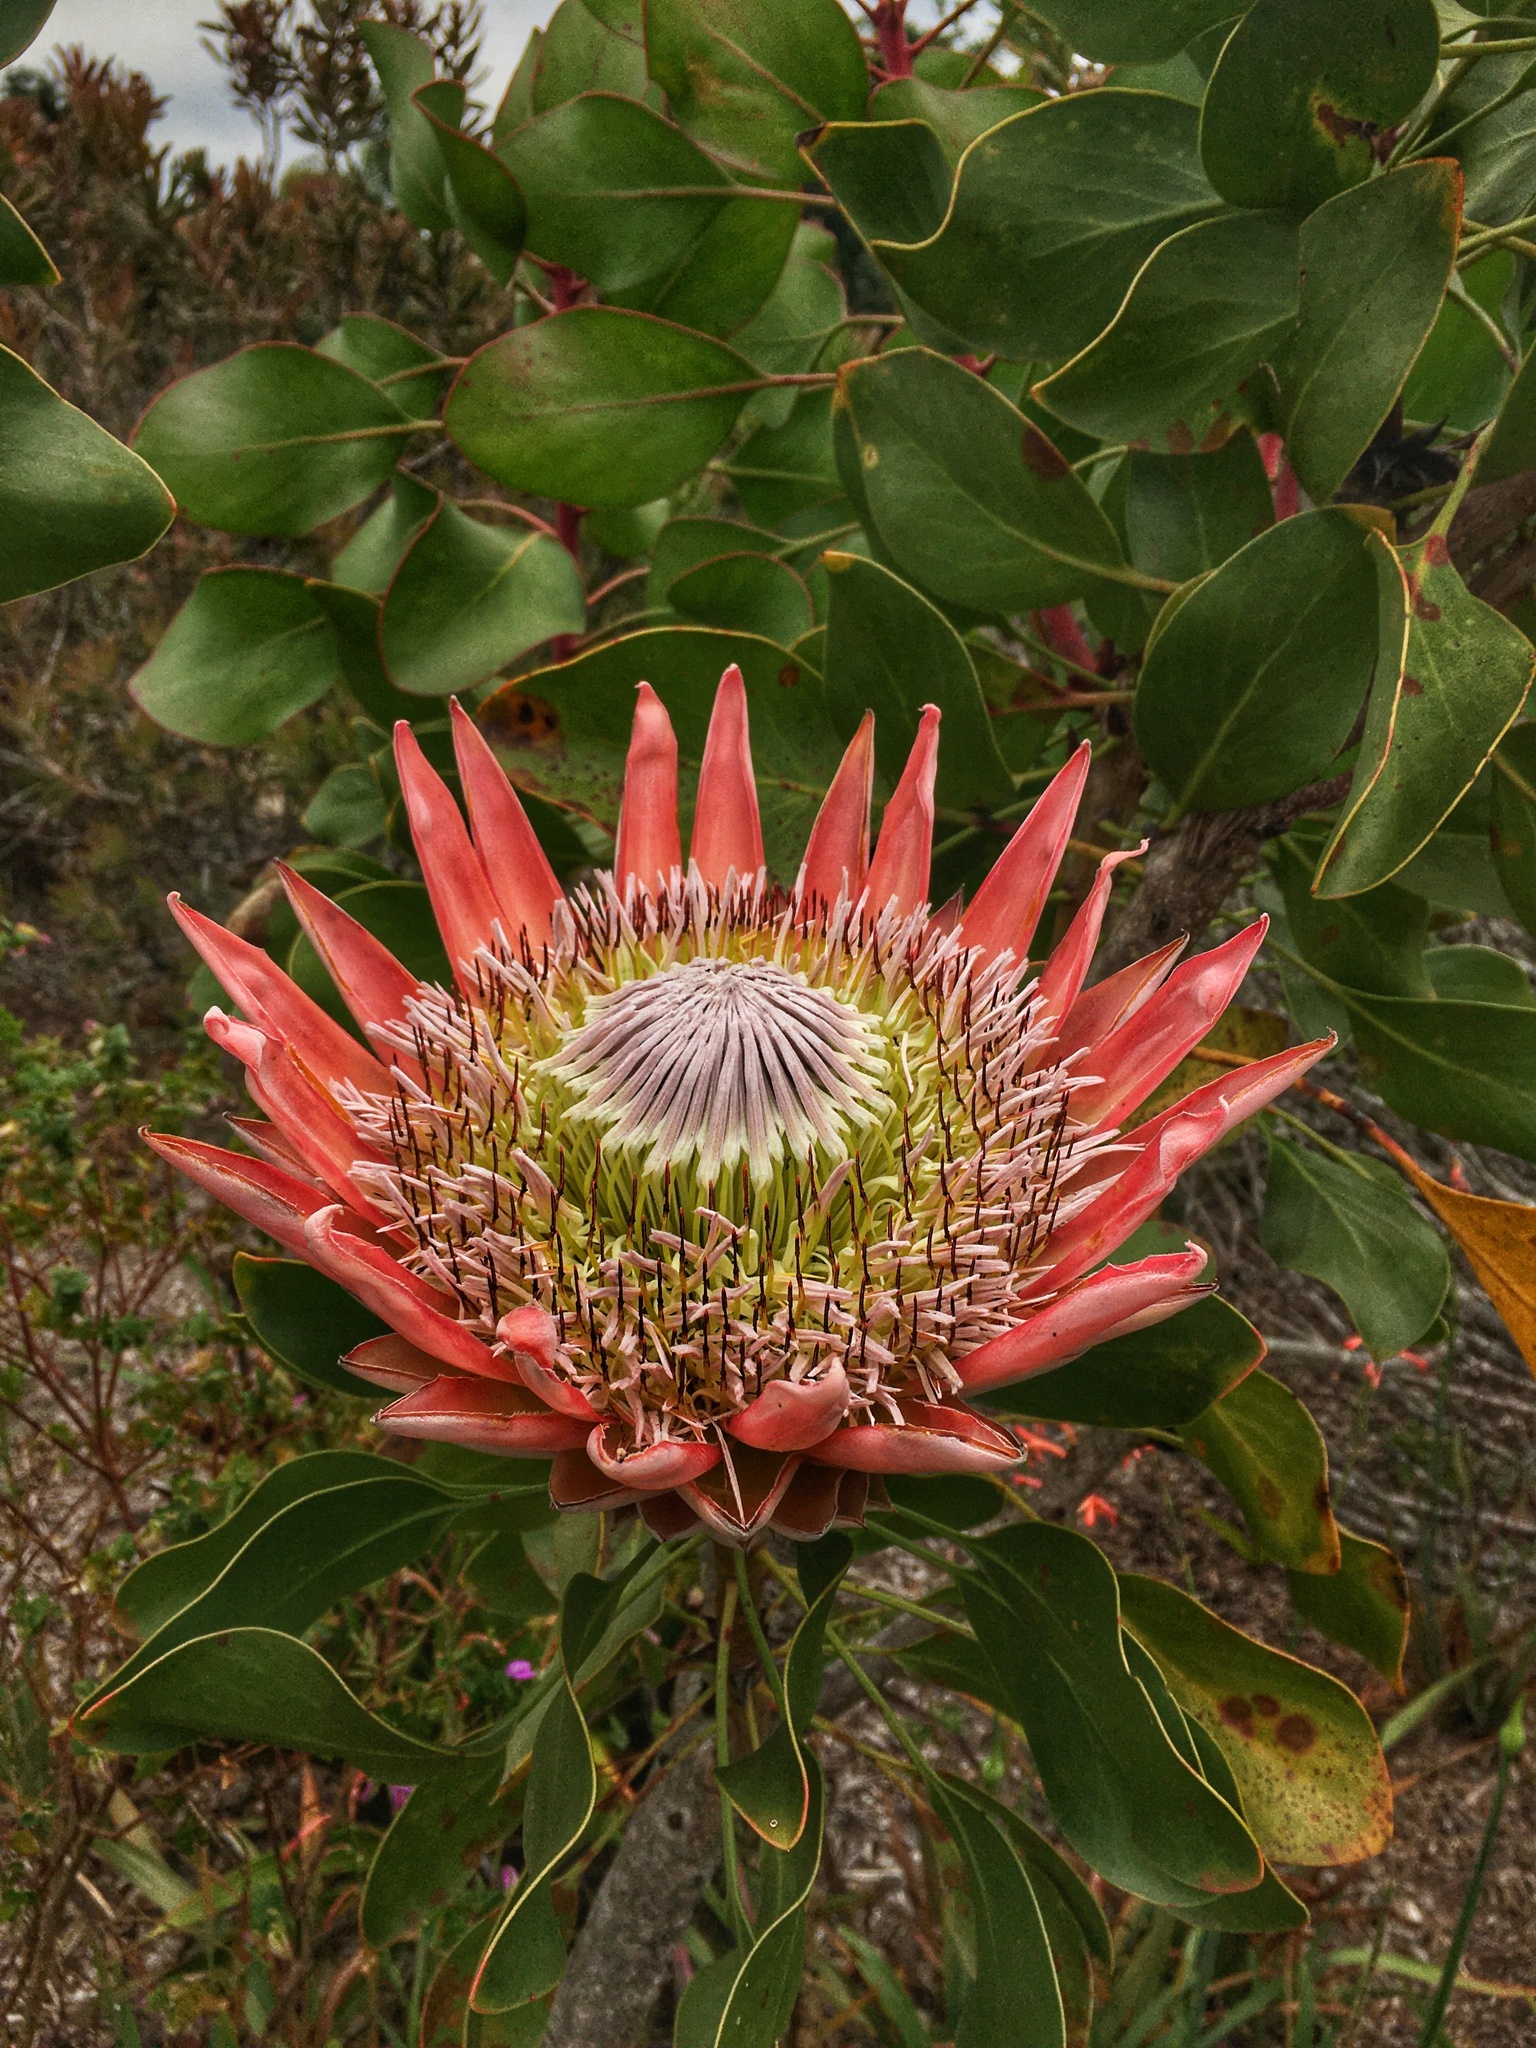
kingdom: Plantae
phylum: Tracheophyta
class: Magnoliopsida
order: Proteales
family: Proteaceae
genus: Protea
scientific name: Protea cynaroides
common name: King protea
